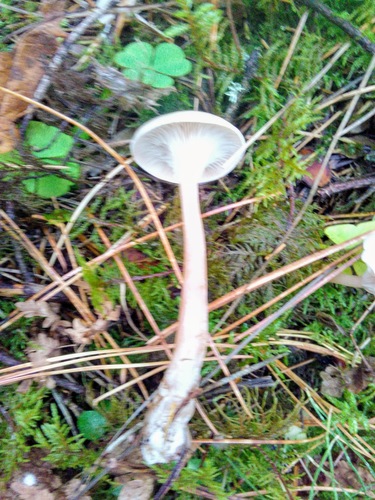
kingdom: Fungi
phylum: Basidiomycota
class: Agaricomycetes
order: Agaricales
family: Tricholomataceae
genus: Clitocybe
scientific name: Clitocybe
